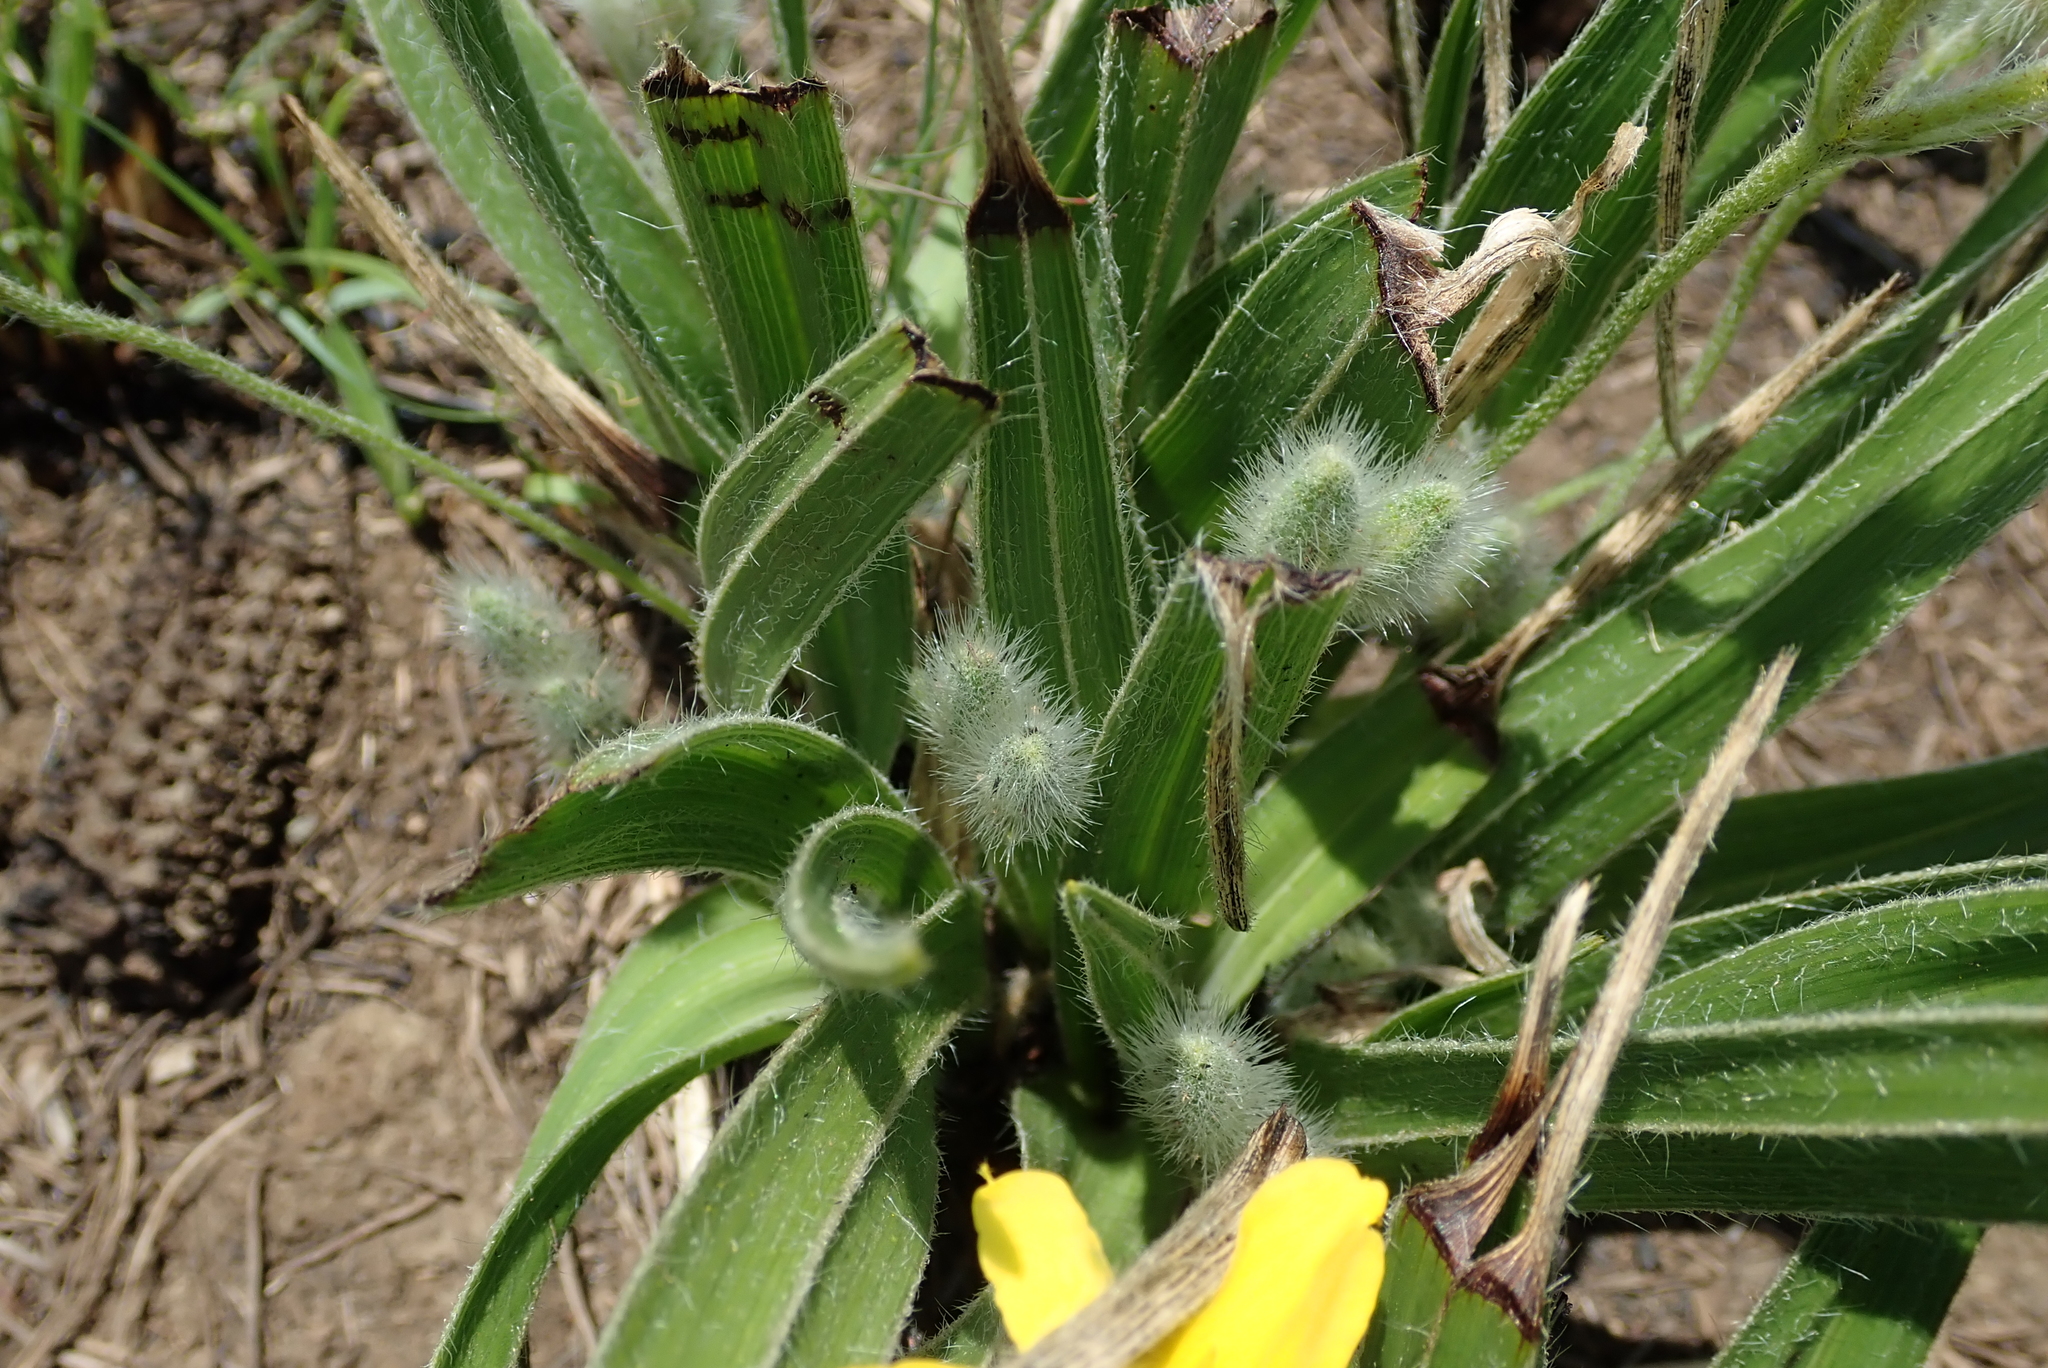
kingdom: Plantae
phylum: Tracheophyta
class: Liliopsida
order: Asparagales
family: Hypoxidaceae
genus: Hypoxis
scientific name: Hypoxis argentea
